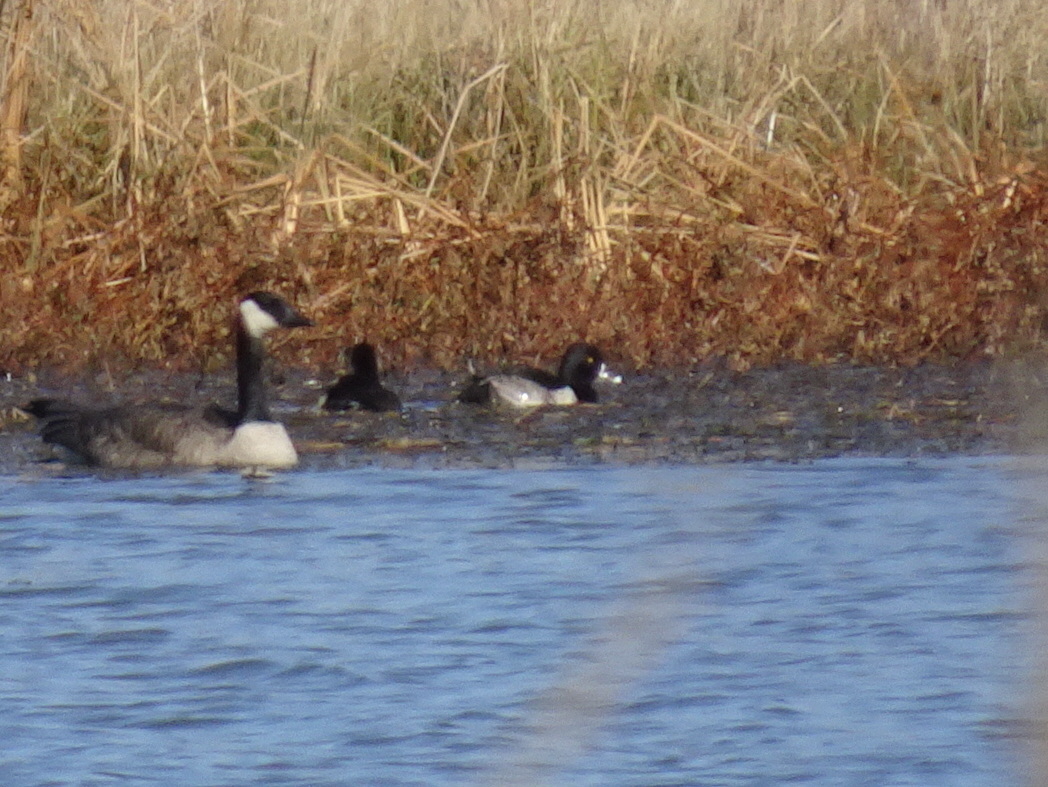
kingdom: Animalia
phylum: Chordata
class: Aves
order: Anseriformes
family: Anatidae
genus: Aythya
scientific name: Aythya collaris
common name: Ring-necked duck
